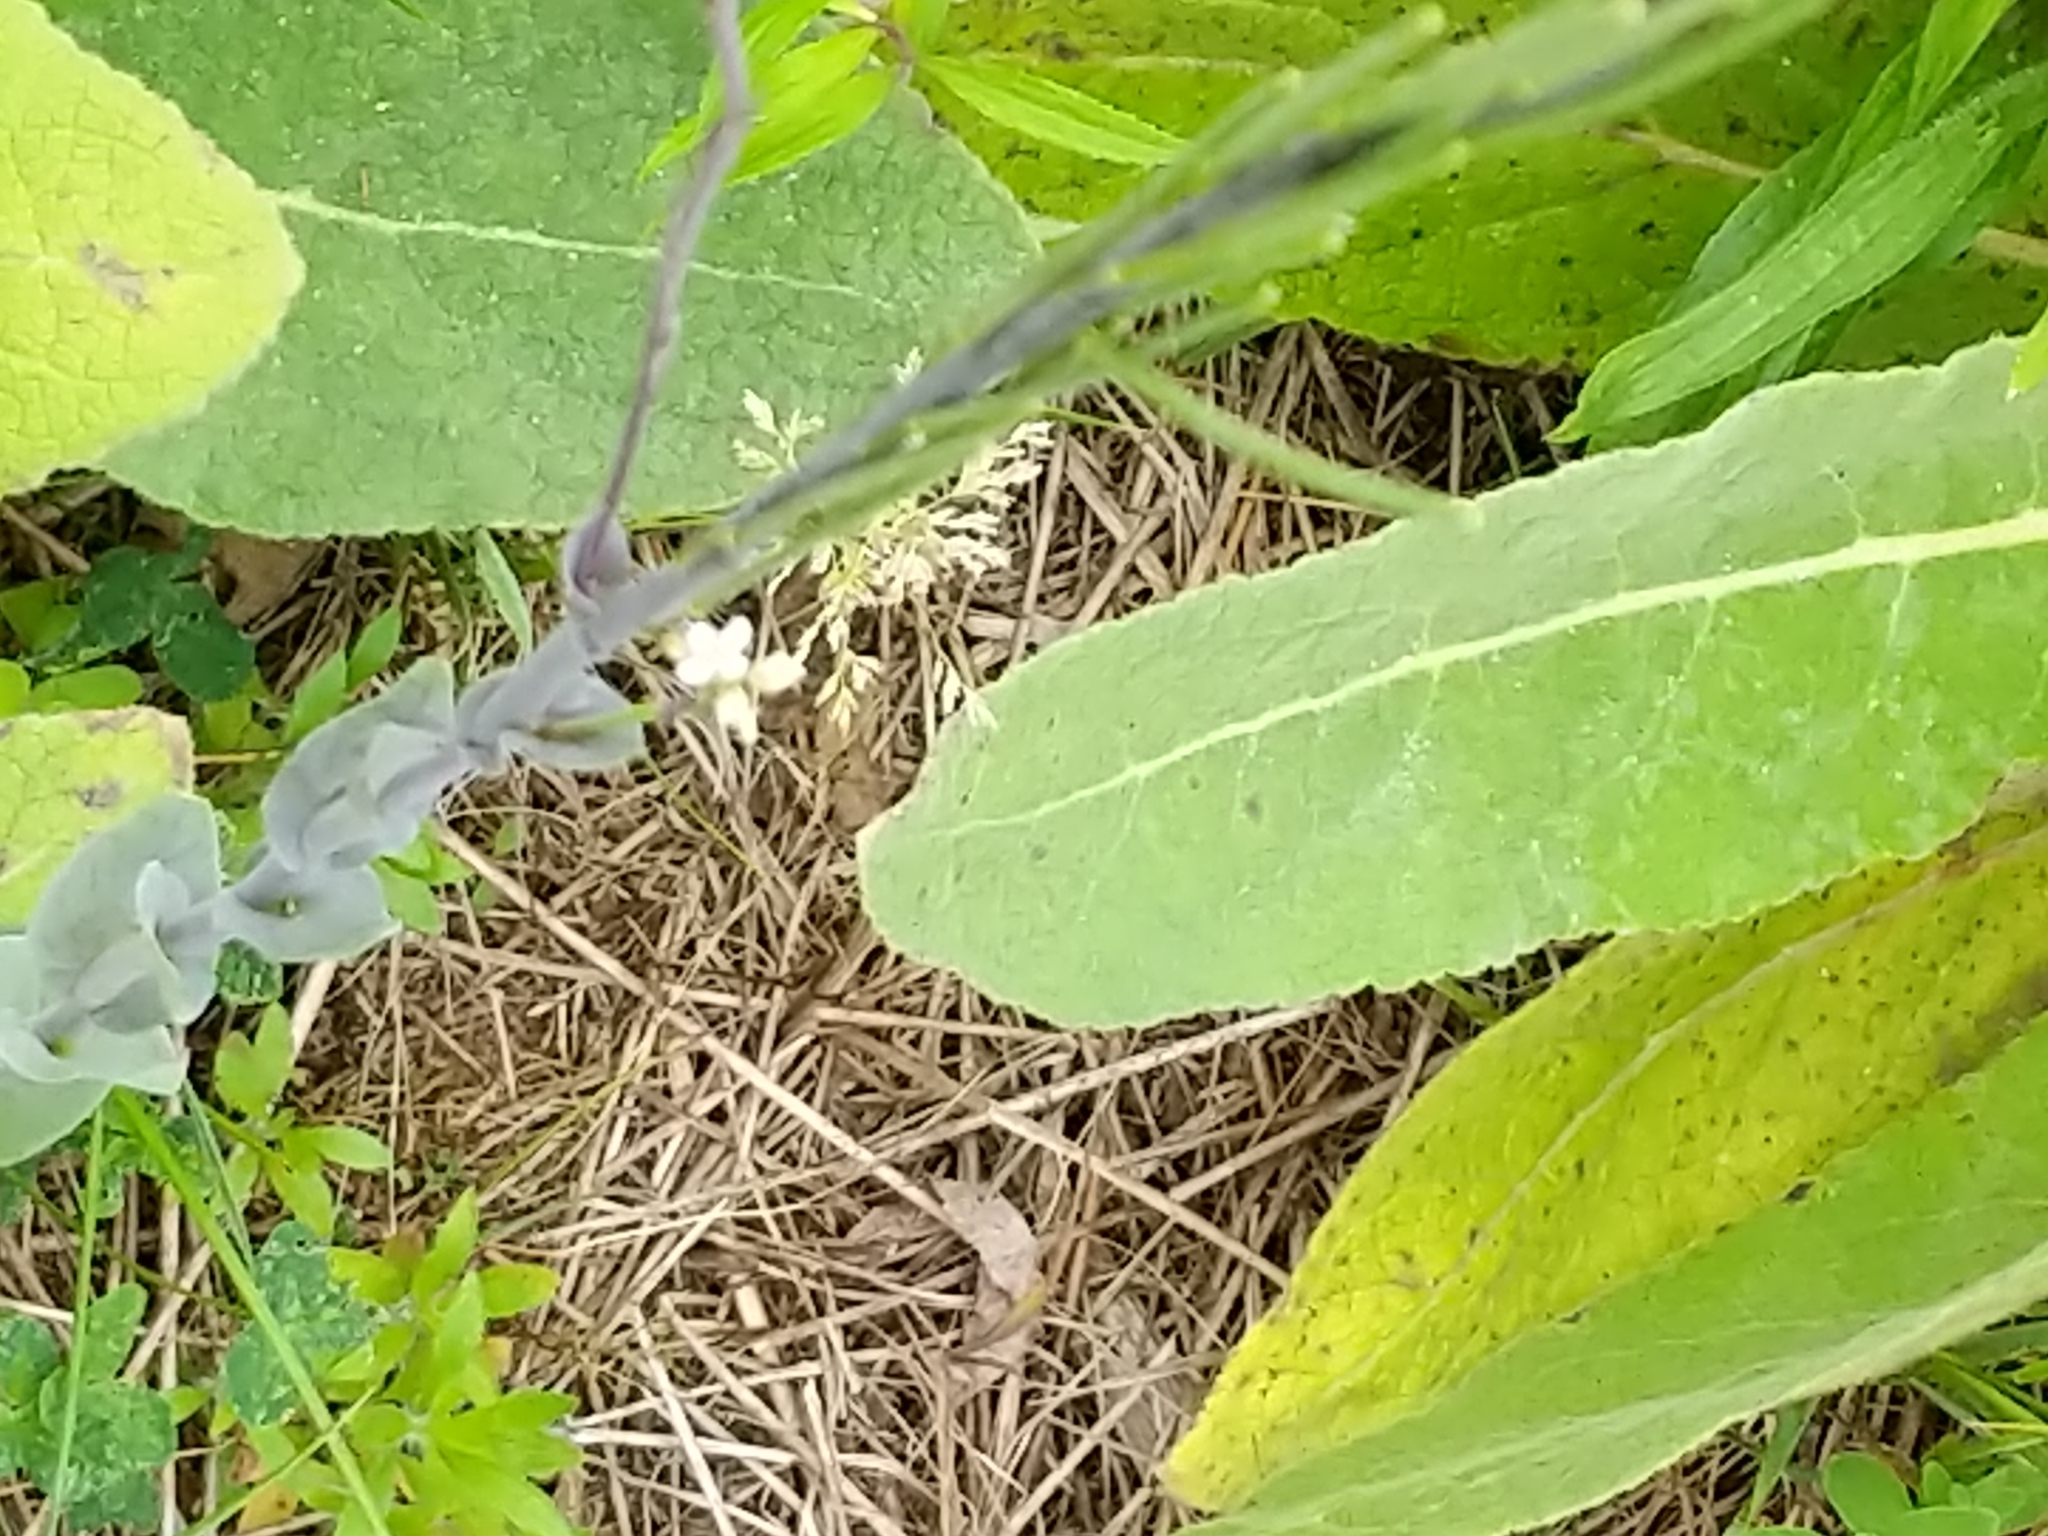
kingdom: Plantae
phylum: Tracheophyta
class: Magnoliopsida
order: Brassicales
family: Brassicaceae
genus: Turritis
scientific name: Turritis glabra
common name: Tower rockcress
